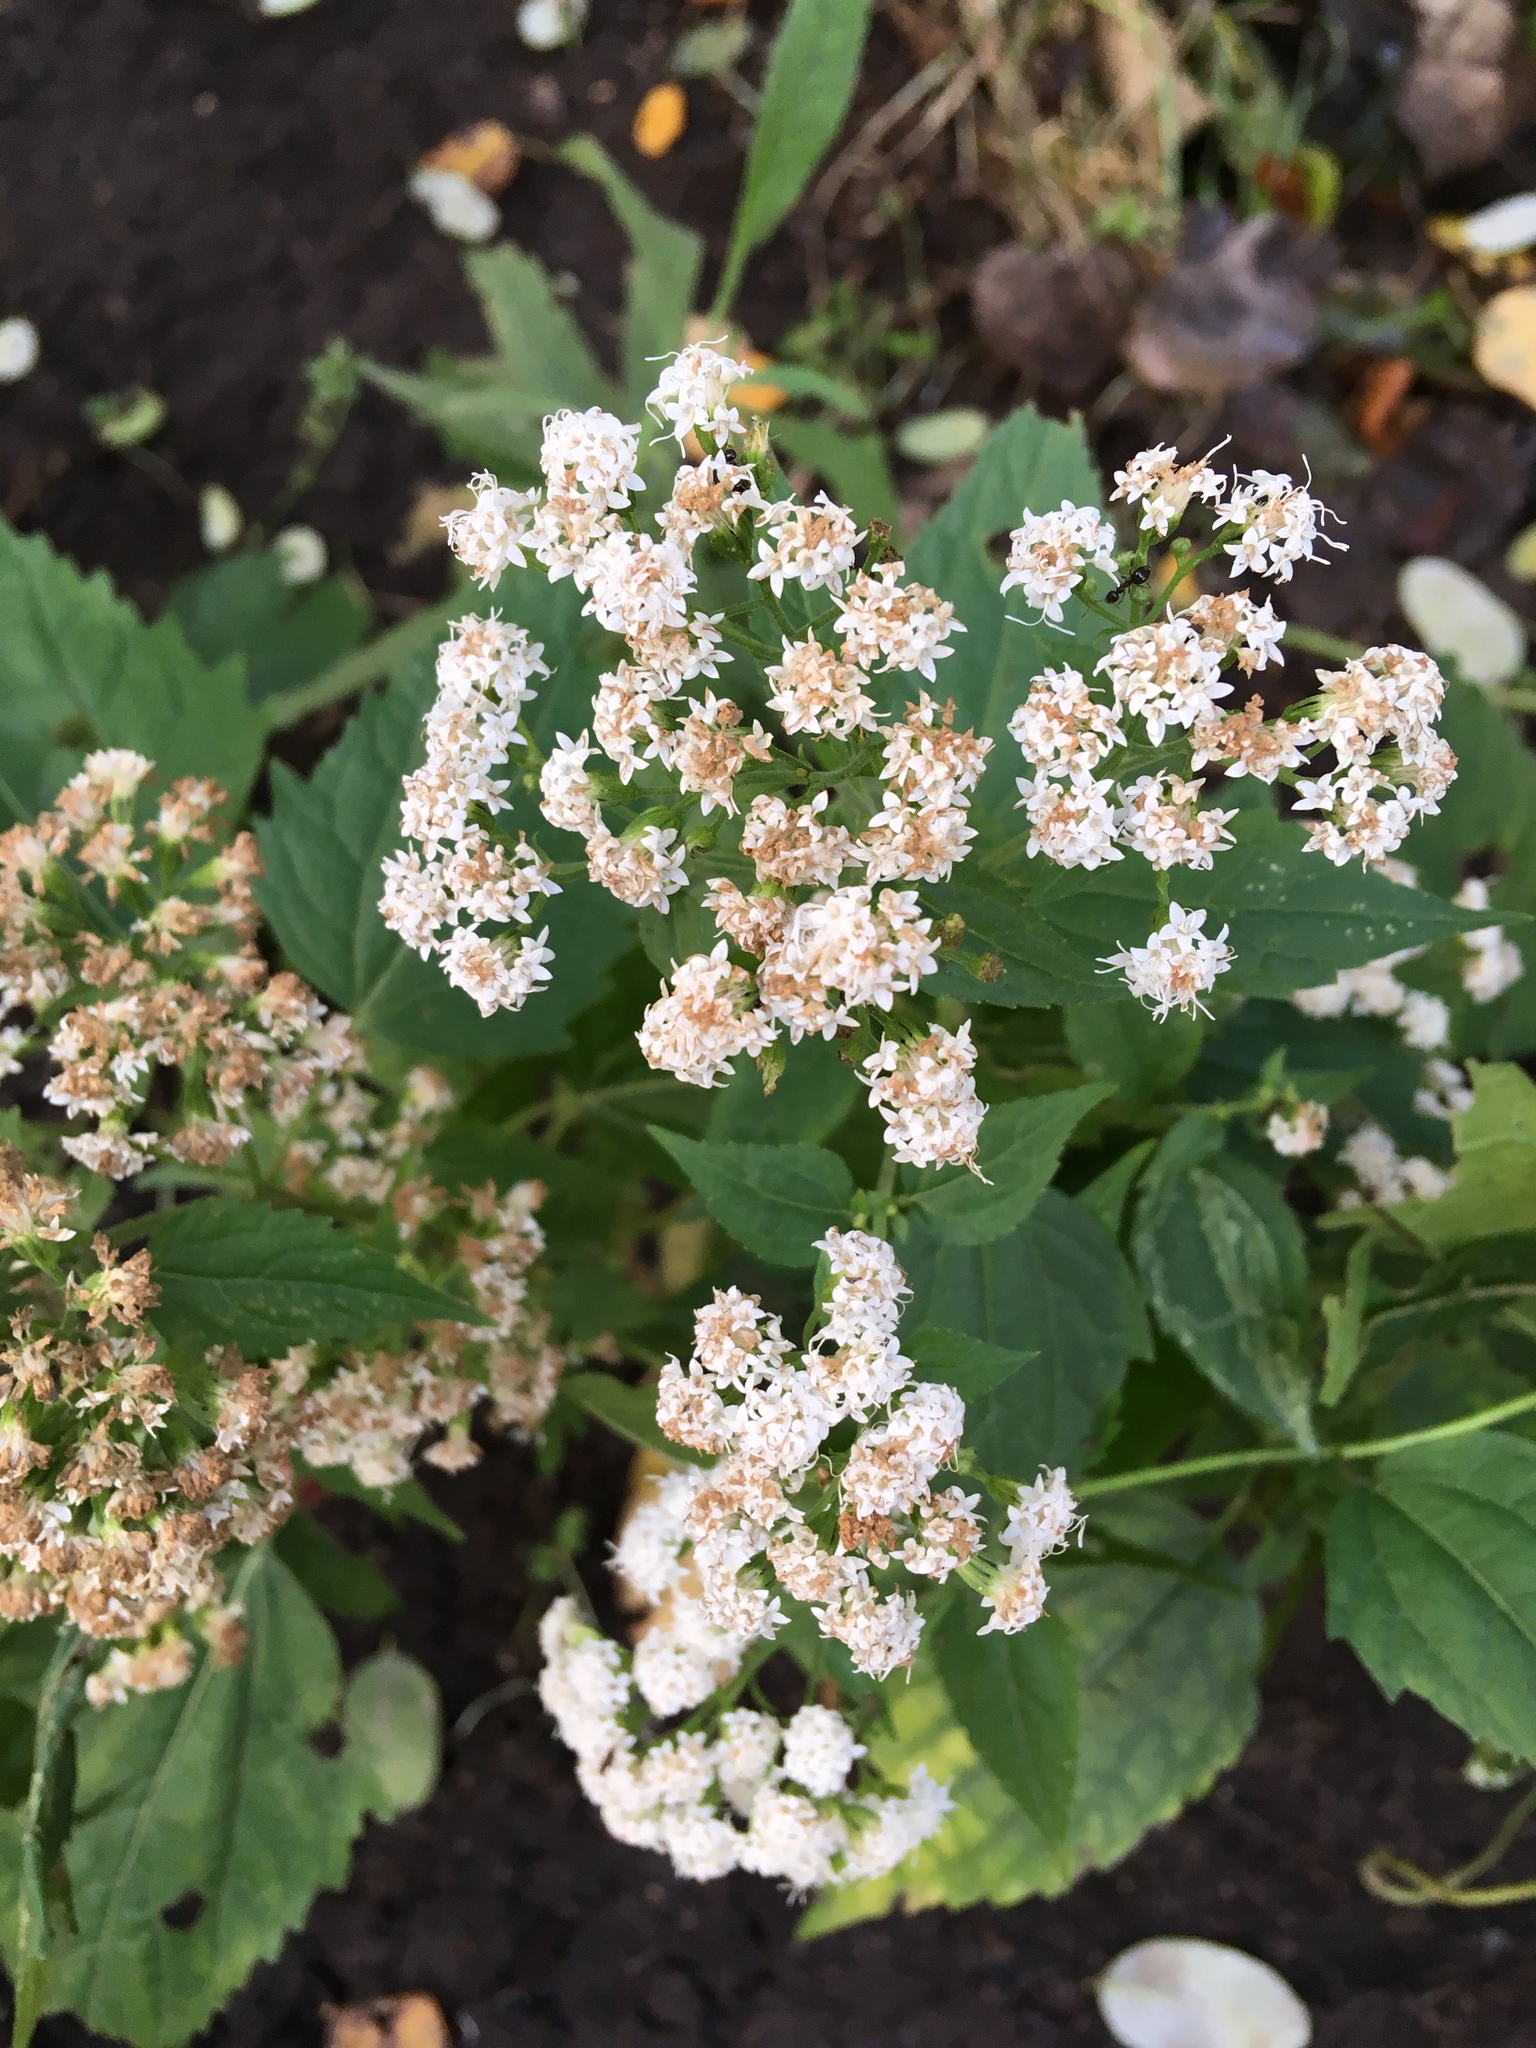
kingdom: Plantae
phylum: Tracheophyta
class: Magnoliopsida
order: Asterales
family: Asteraceae
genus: Ageratina
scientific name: Ageratina altissima
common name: White snakeroot
